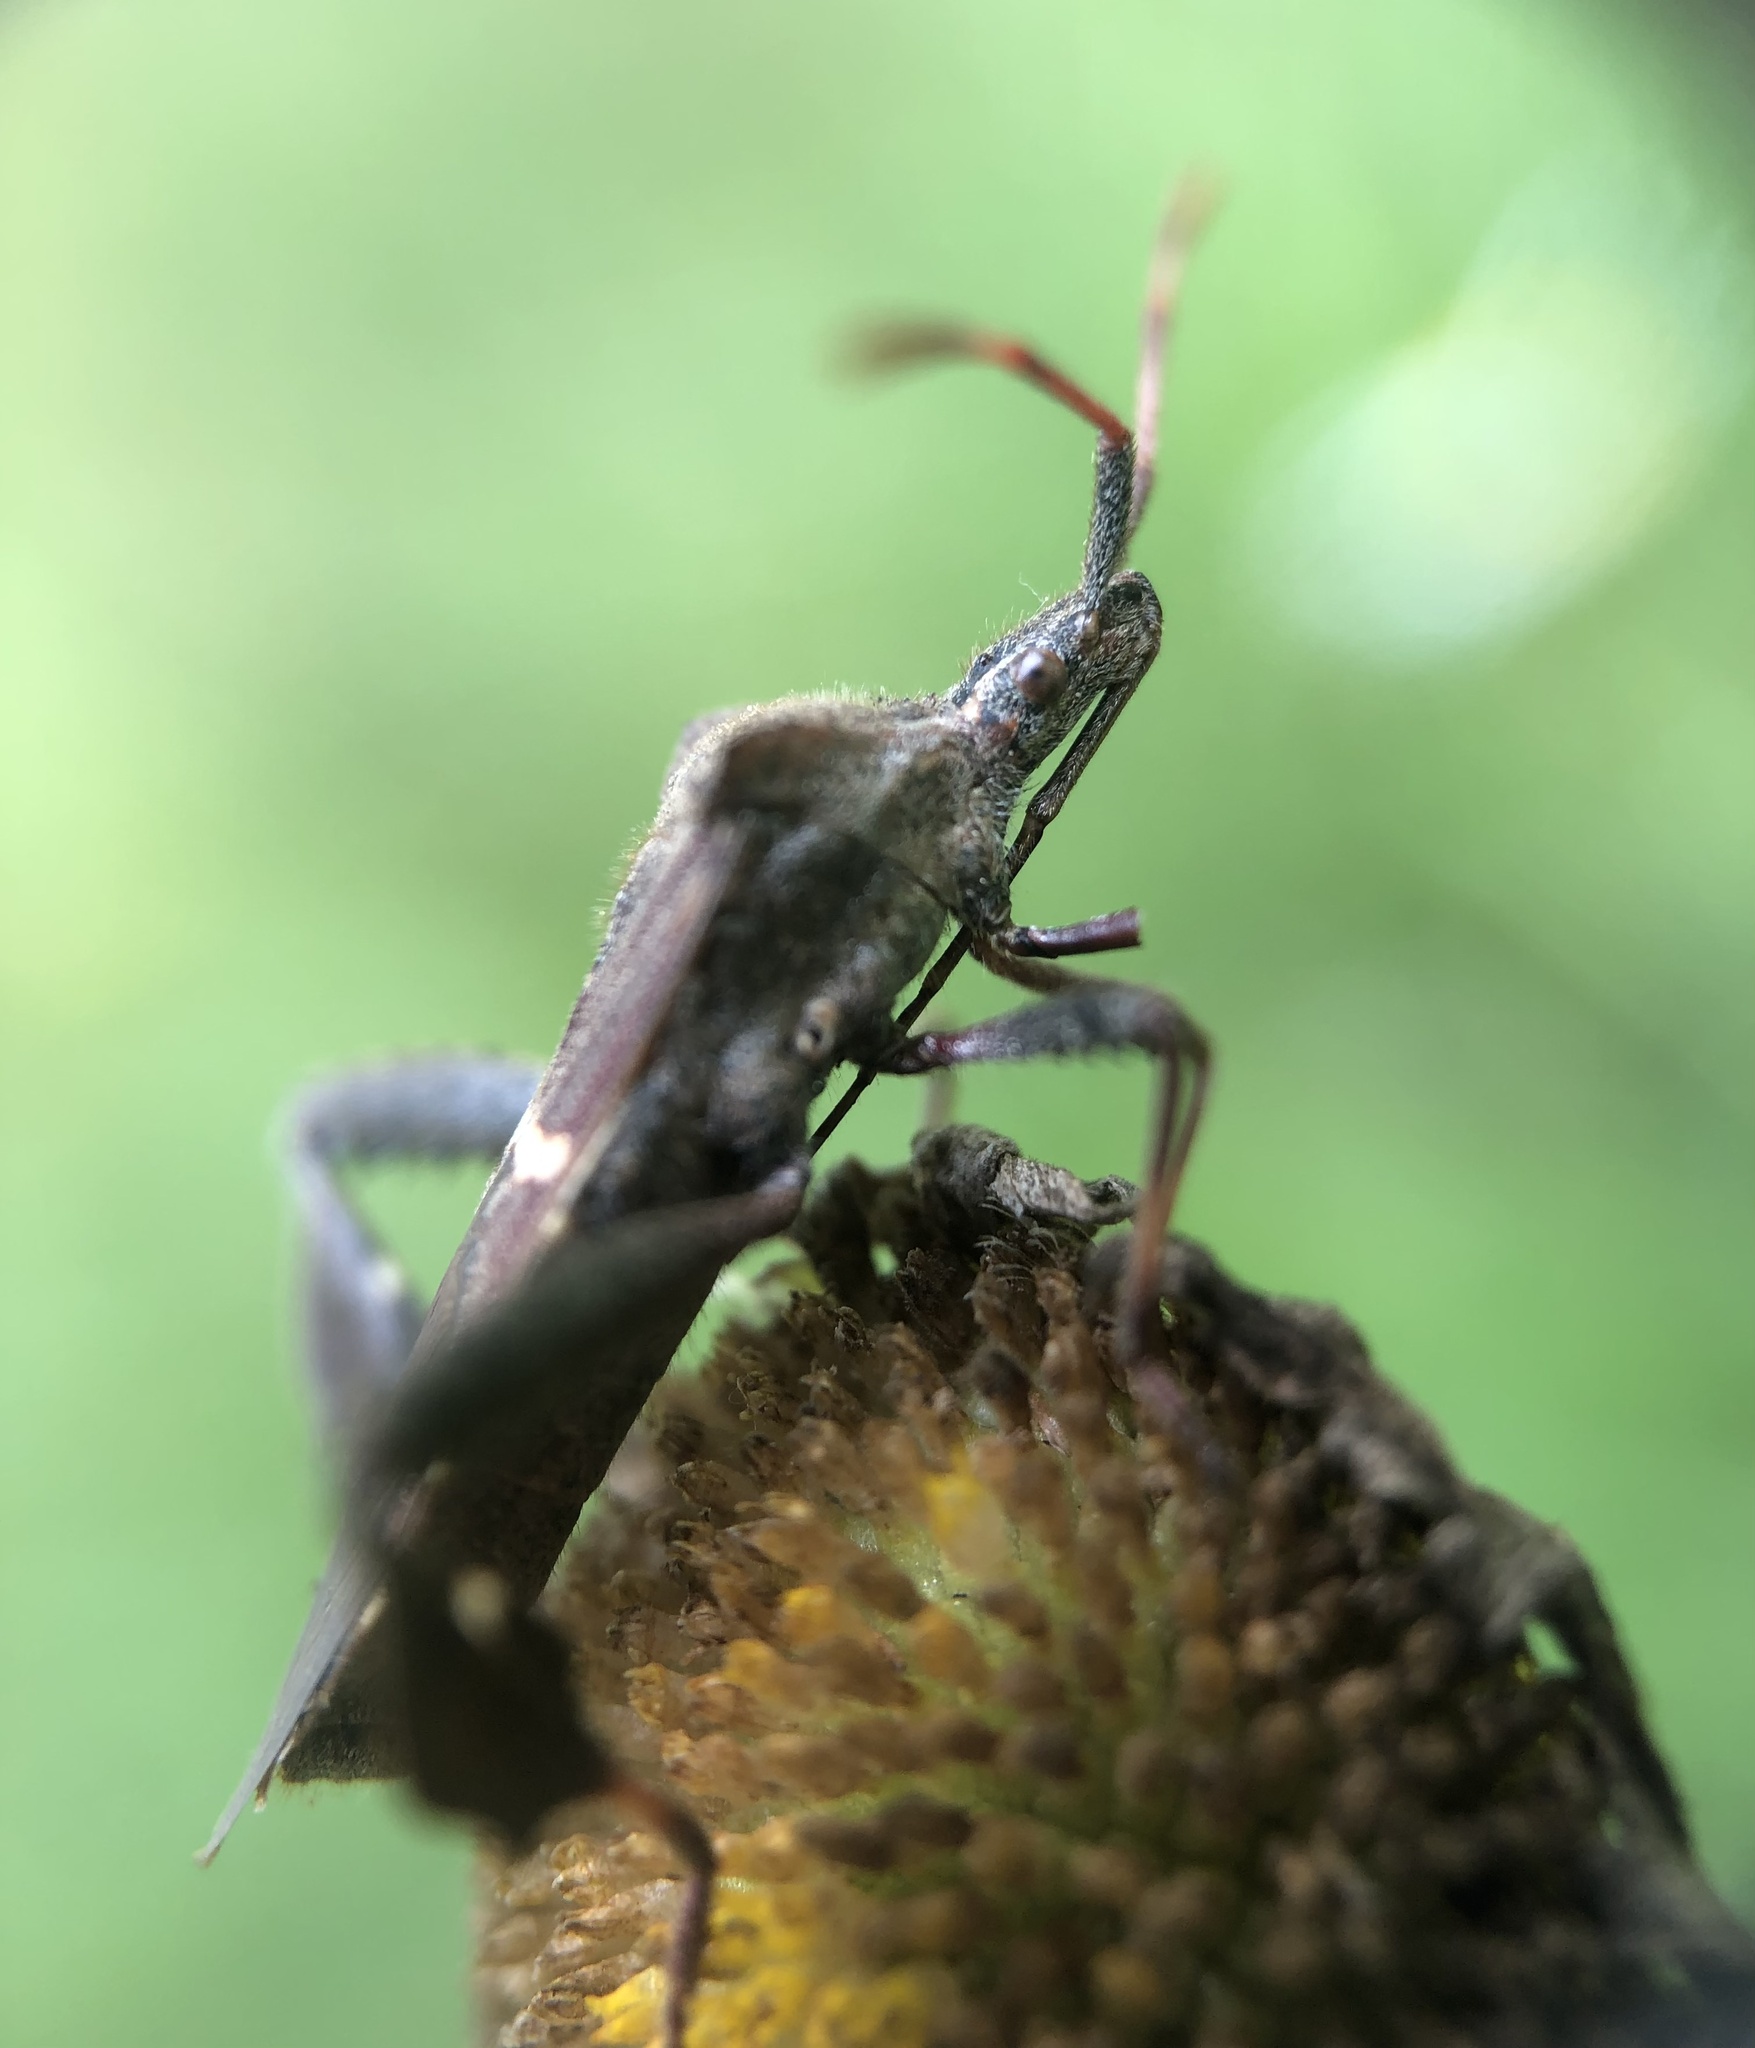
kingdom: Animalia
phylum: Arthropoda
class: Insecta
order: Hemiptera
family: Coreidae
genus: Leptoglossus
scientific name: Leptoglossus phyllopus
